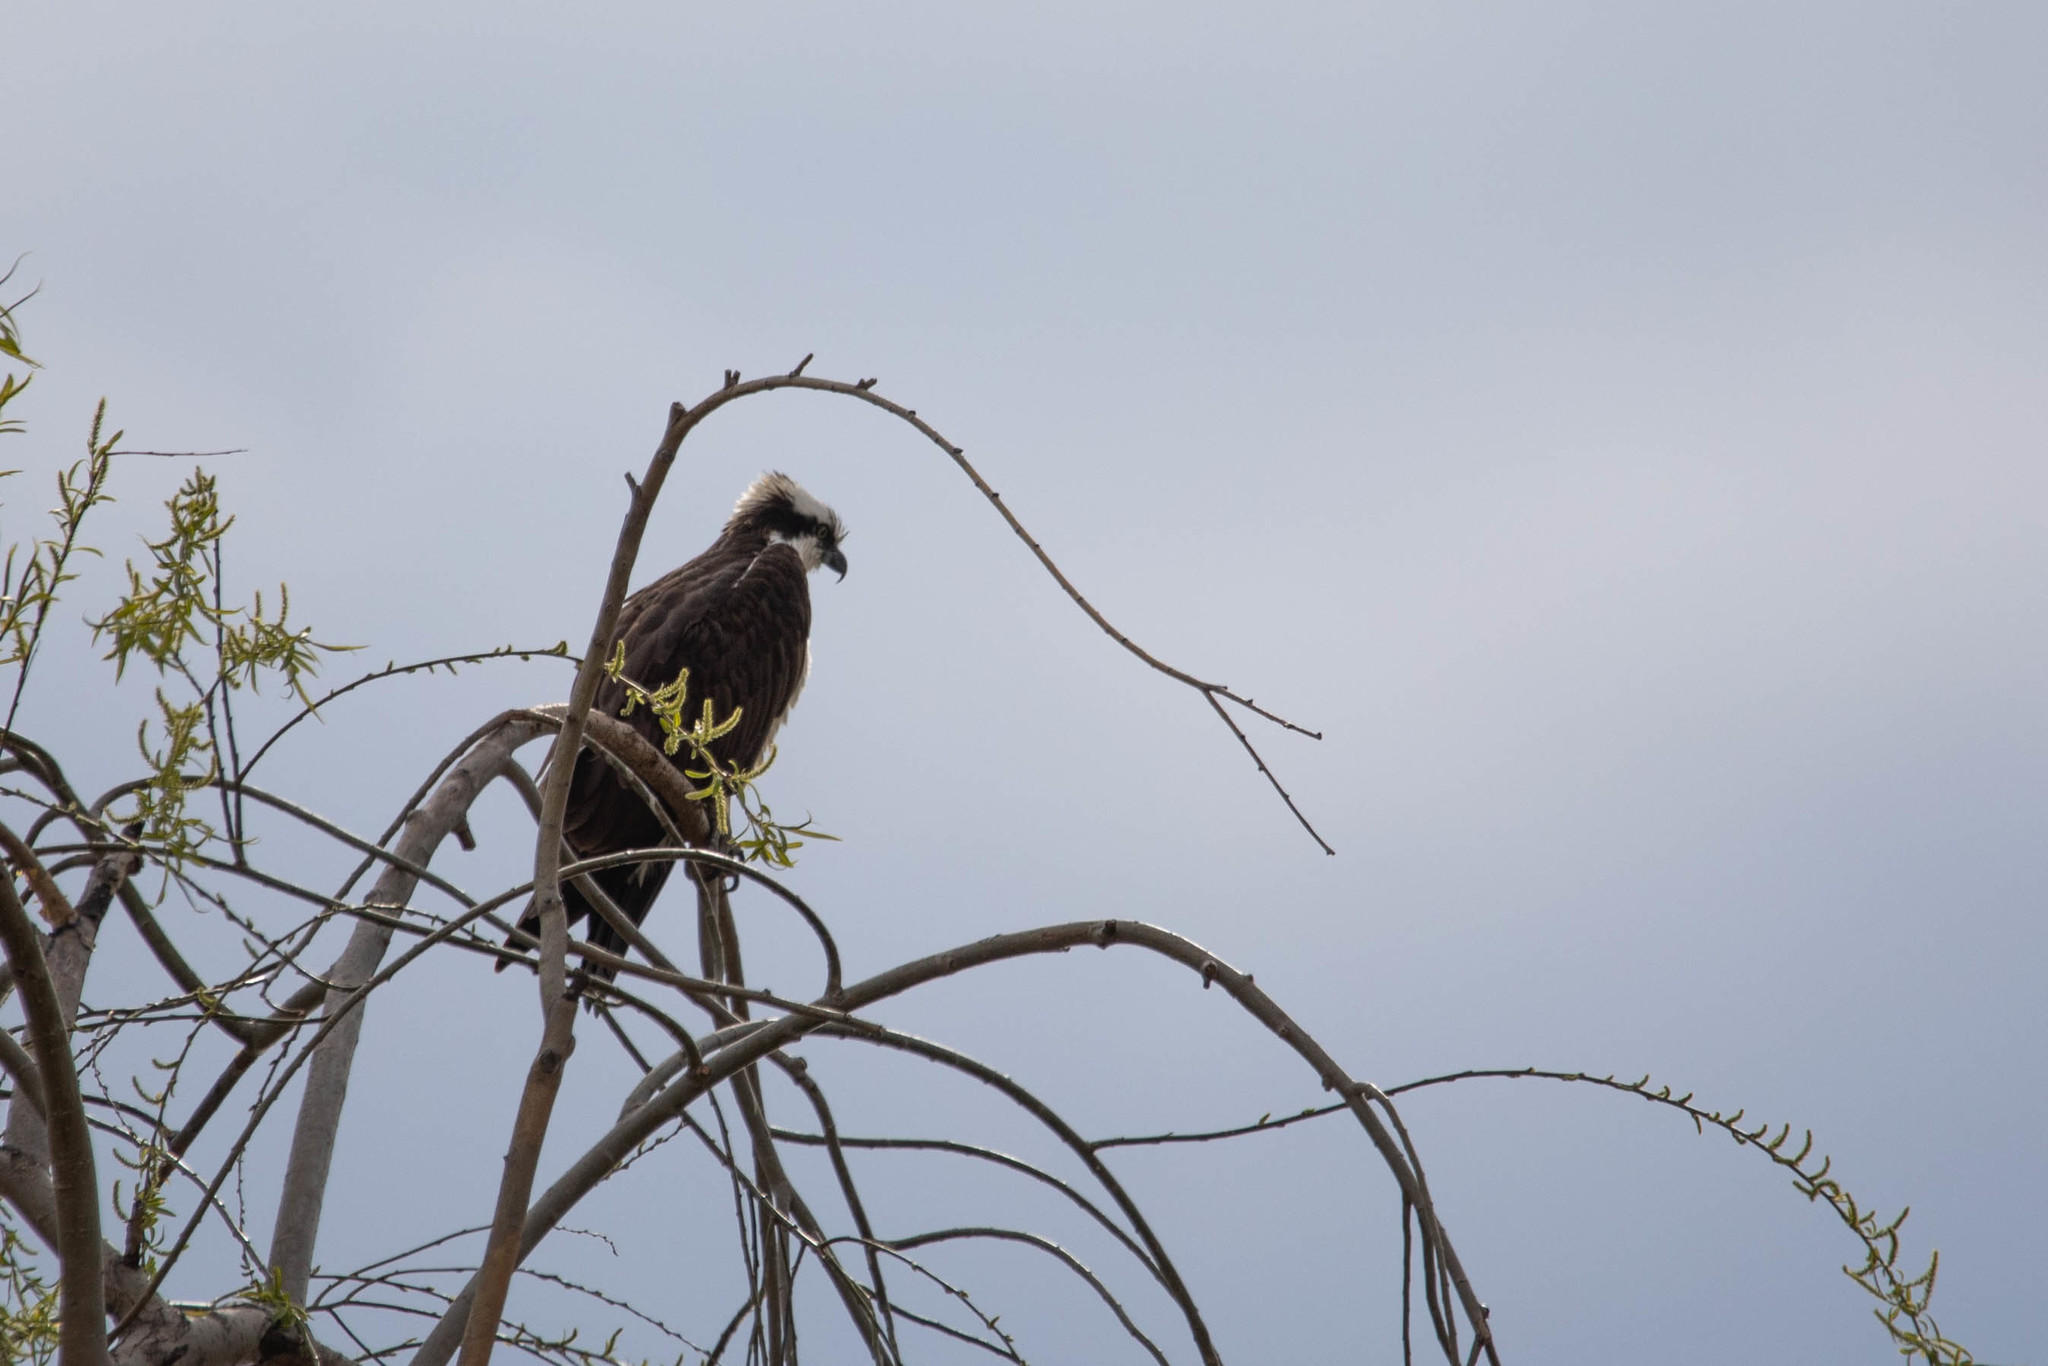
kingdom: Animalia
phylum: Chordata
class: Aves
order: Accipitriformes
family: Pandionidae
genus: Pandion
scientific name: Pandion haliaetus
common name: Osprey
